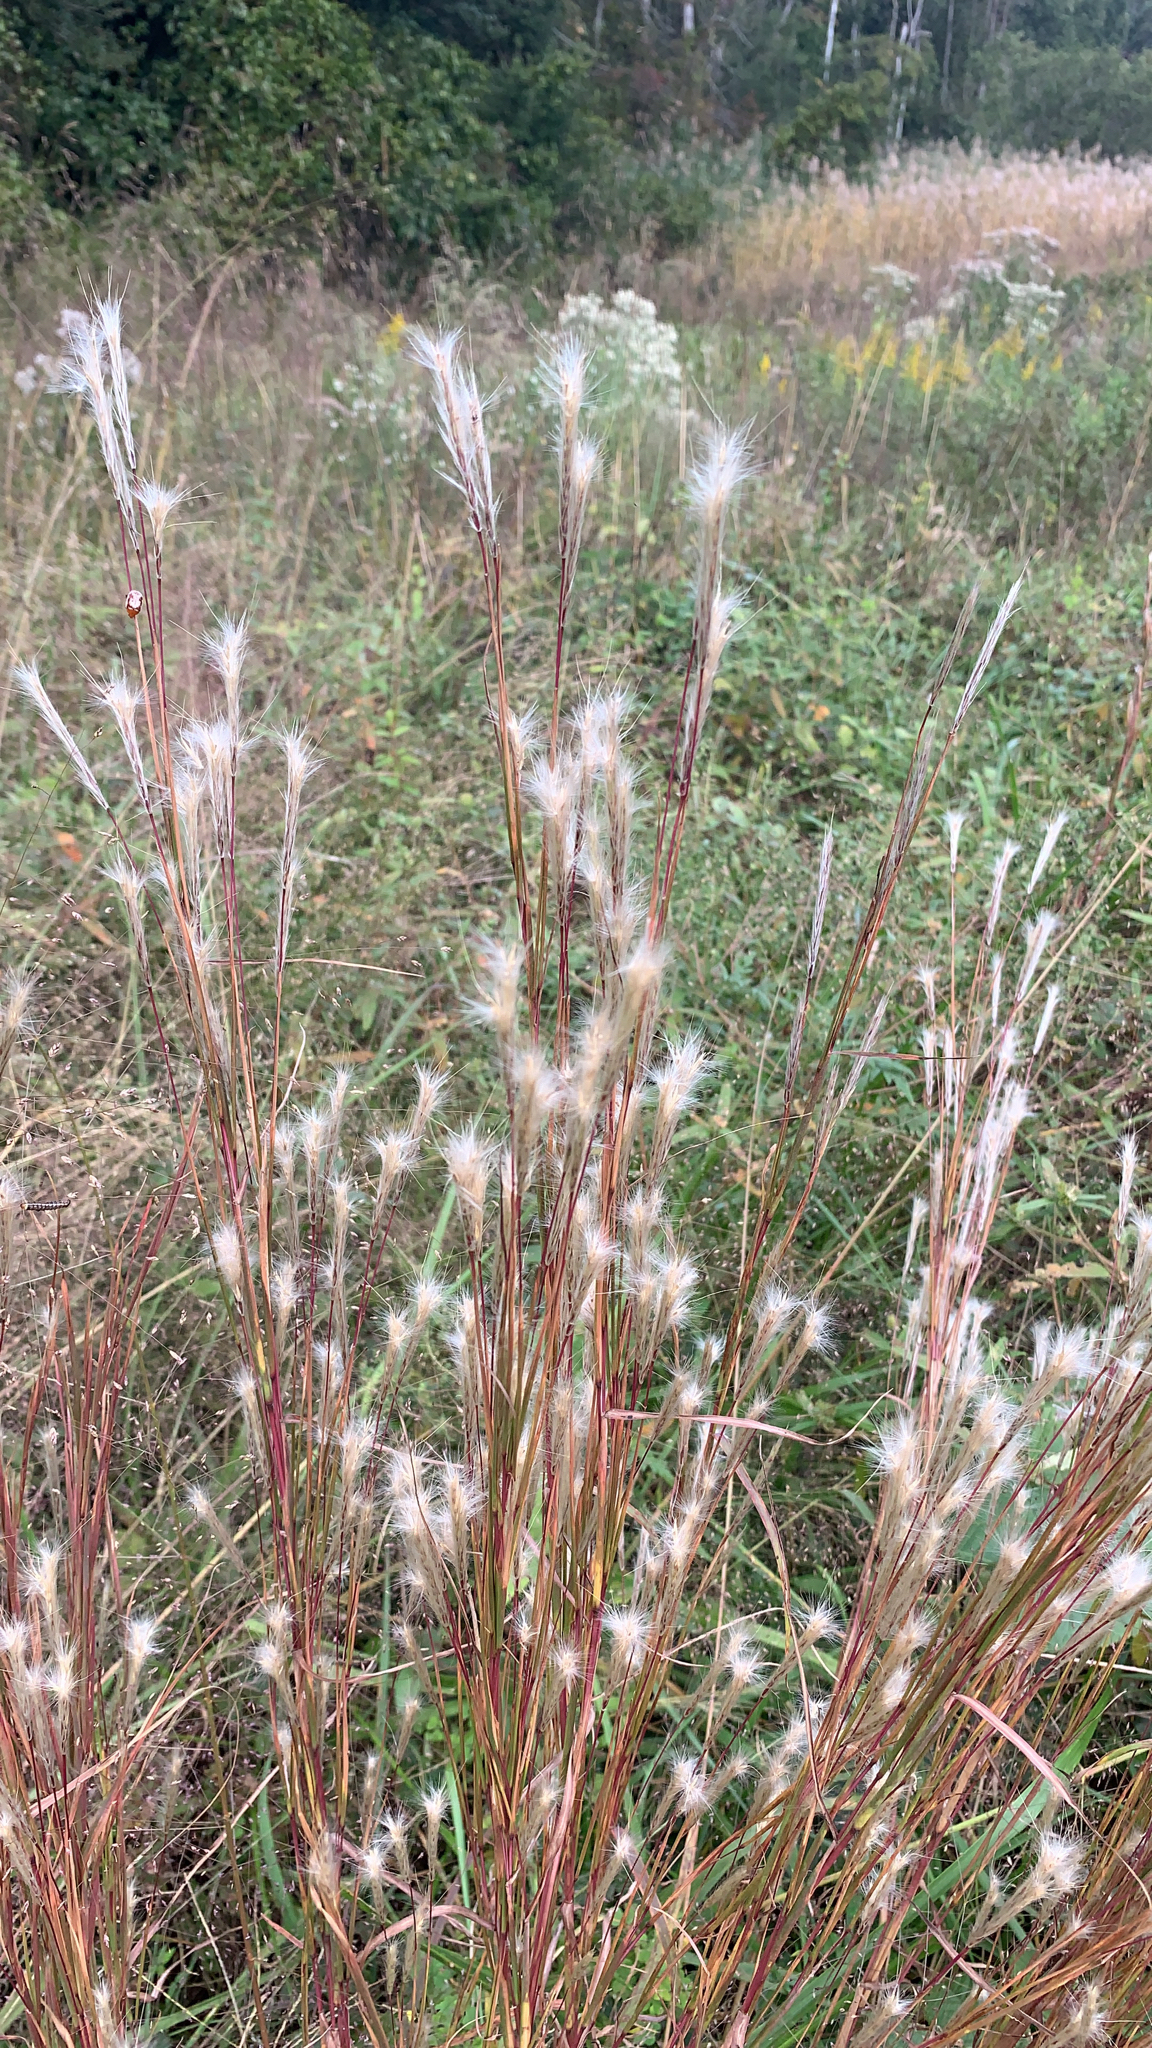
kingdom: Plantae
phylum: Tracheophyta
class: Liliopsida
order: Poales
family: Poaceae
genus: Andropogon
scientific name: Andropogon ternarius
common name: Split bluestem
